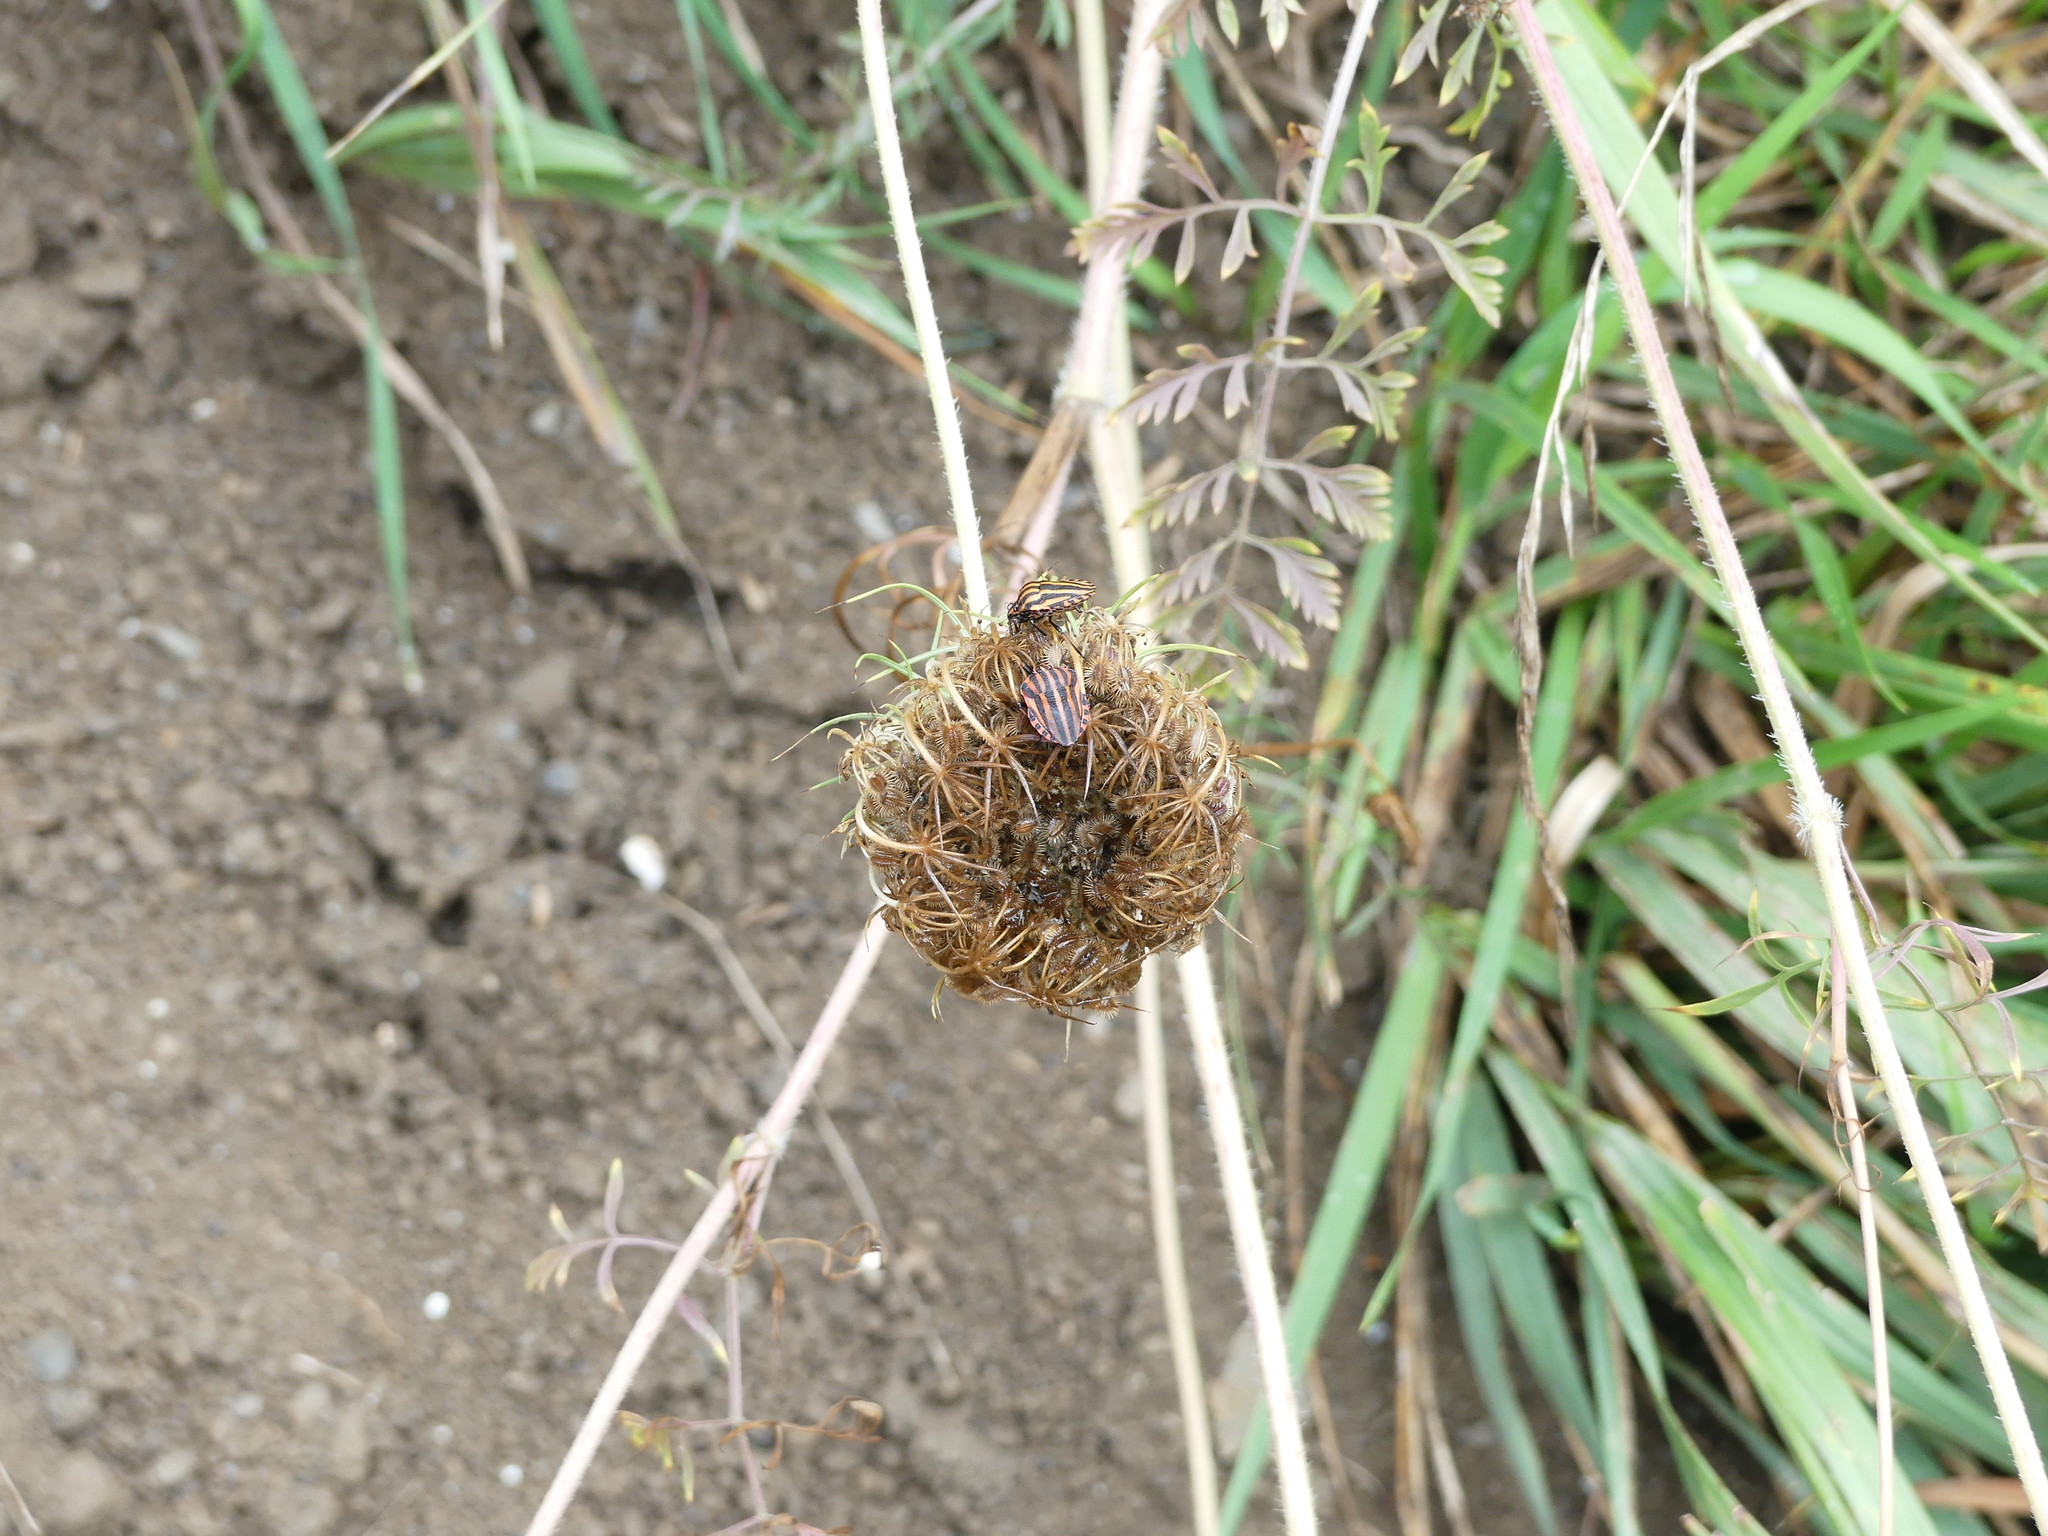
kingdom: Animalia
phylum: Arthropoda
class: Insecta
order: Hemiptera
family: Pentatomidae
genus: Graphosoma
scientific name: Graphosoma italicum
